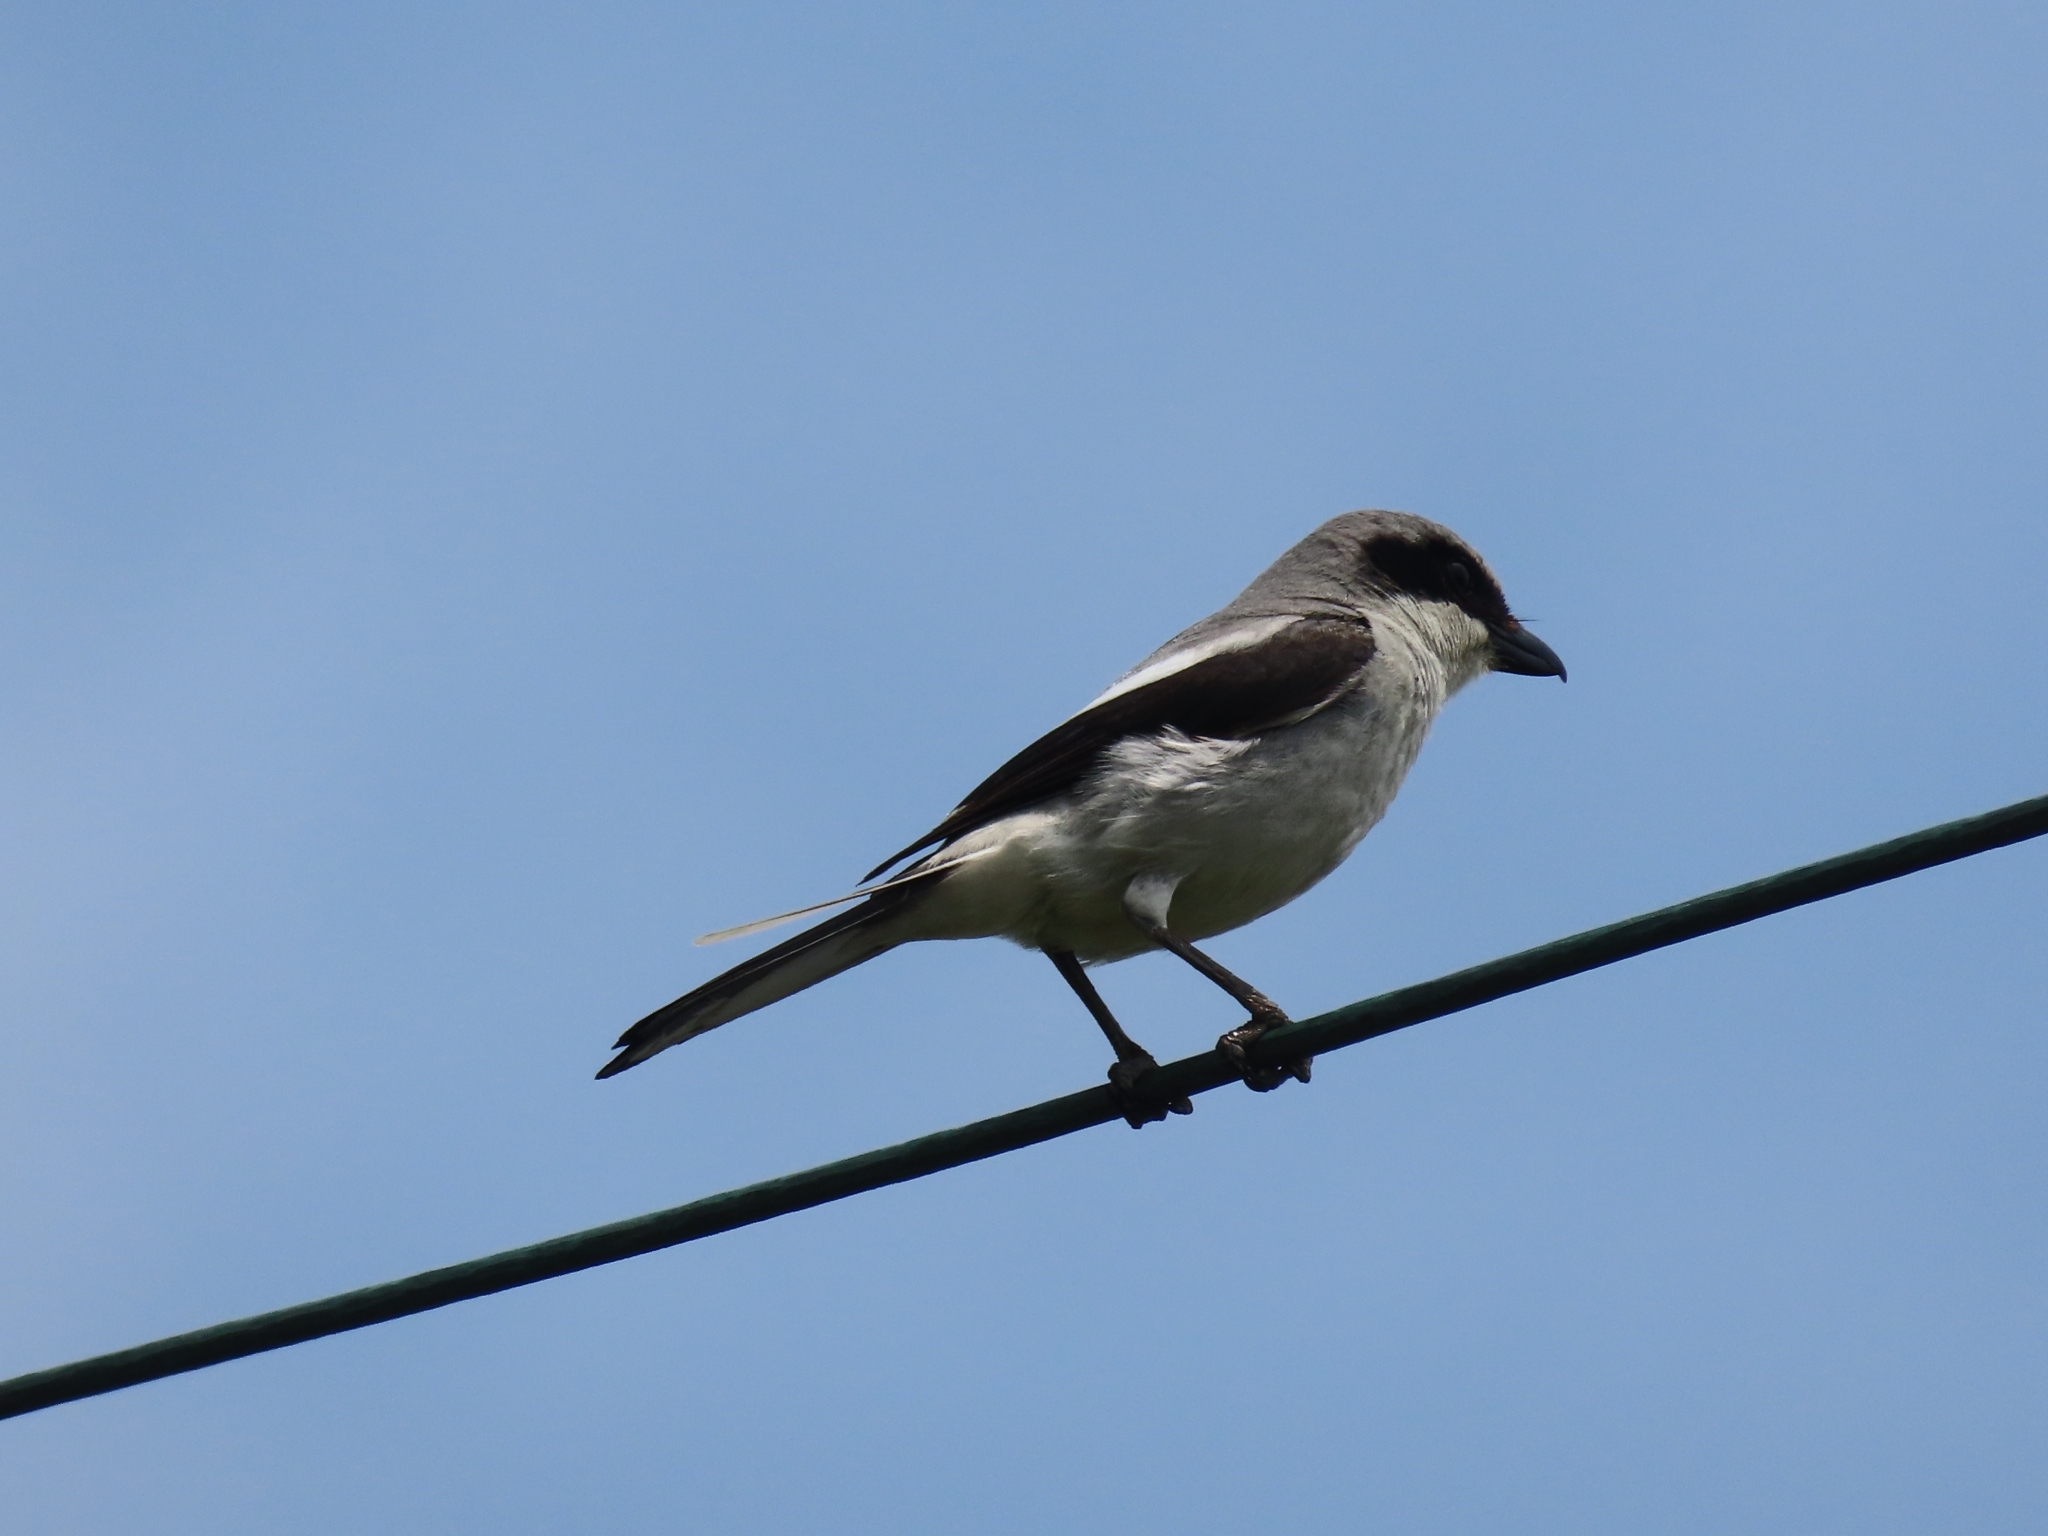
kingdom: Animalia
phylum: Chordata
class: Aves
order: Passeriformes
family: Laniidae
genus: Lanius
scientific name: Lanius ludovicianus
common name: Loggerhead shrike
